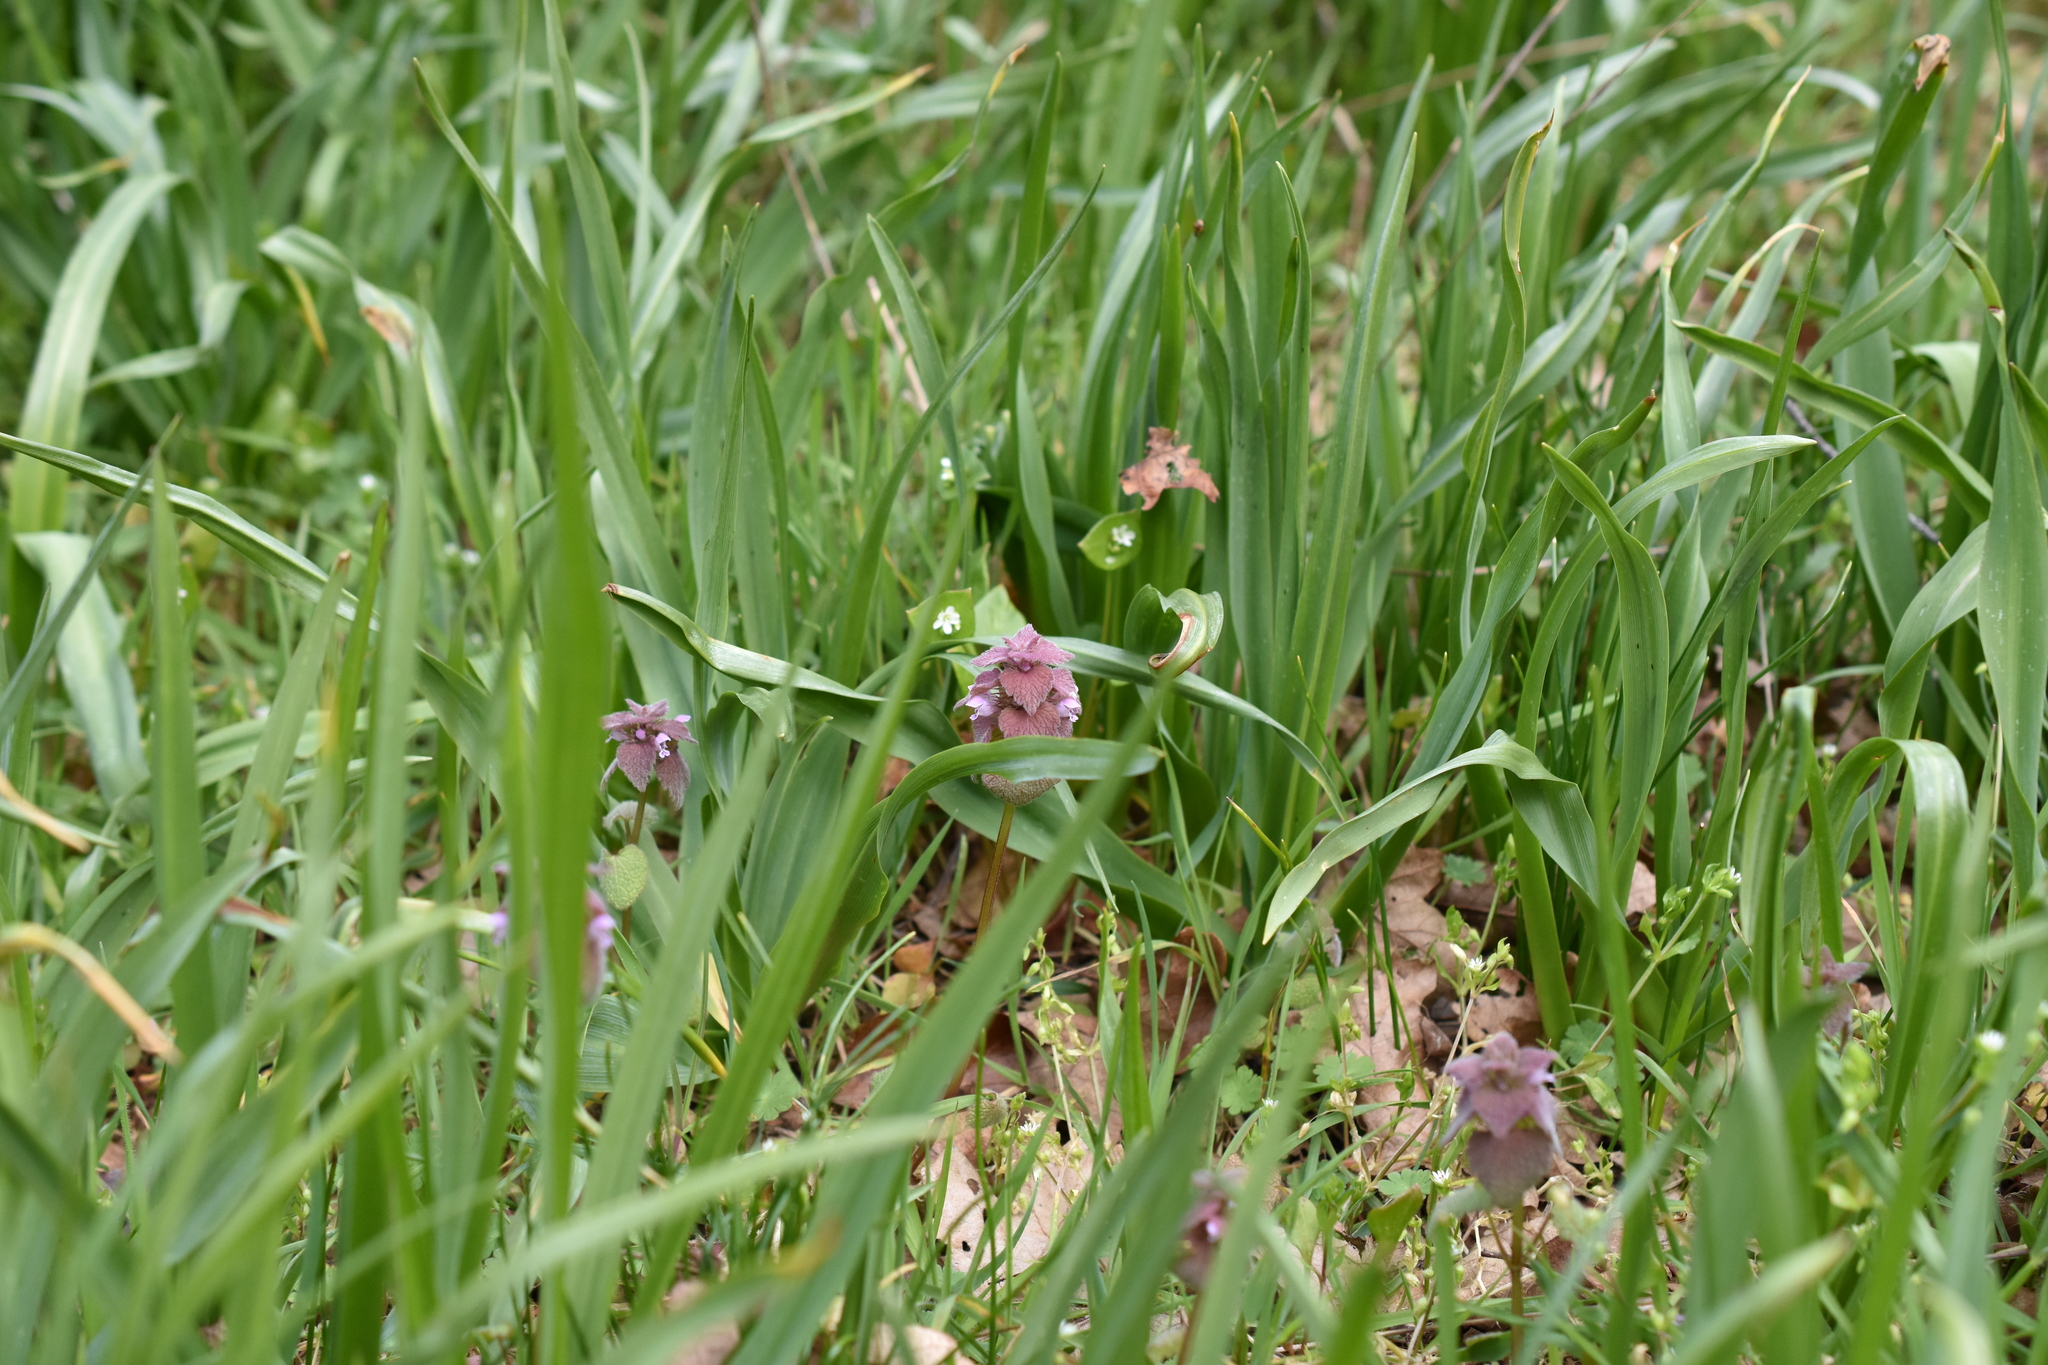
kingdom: Plantae
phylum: Tracheophyta
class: Magnoliopsida
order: Lamiales
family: Lamiaceae
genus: Lamium
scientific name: Lamium purpureum
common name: Red dead-nettle
